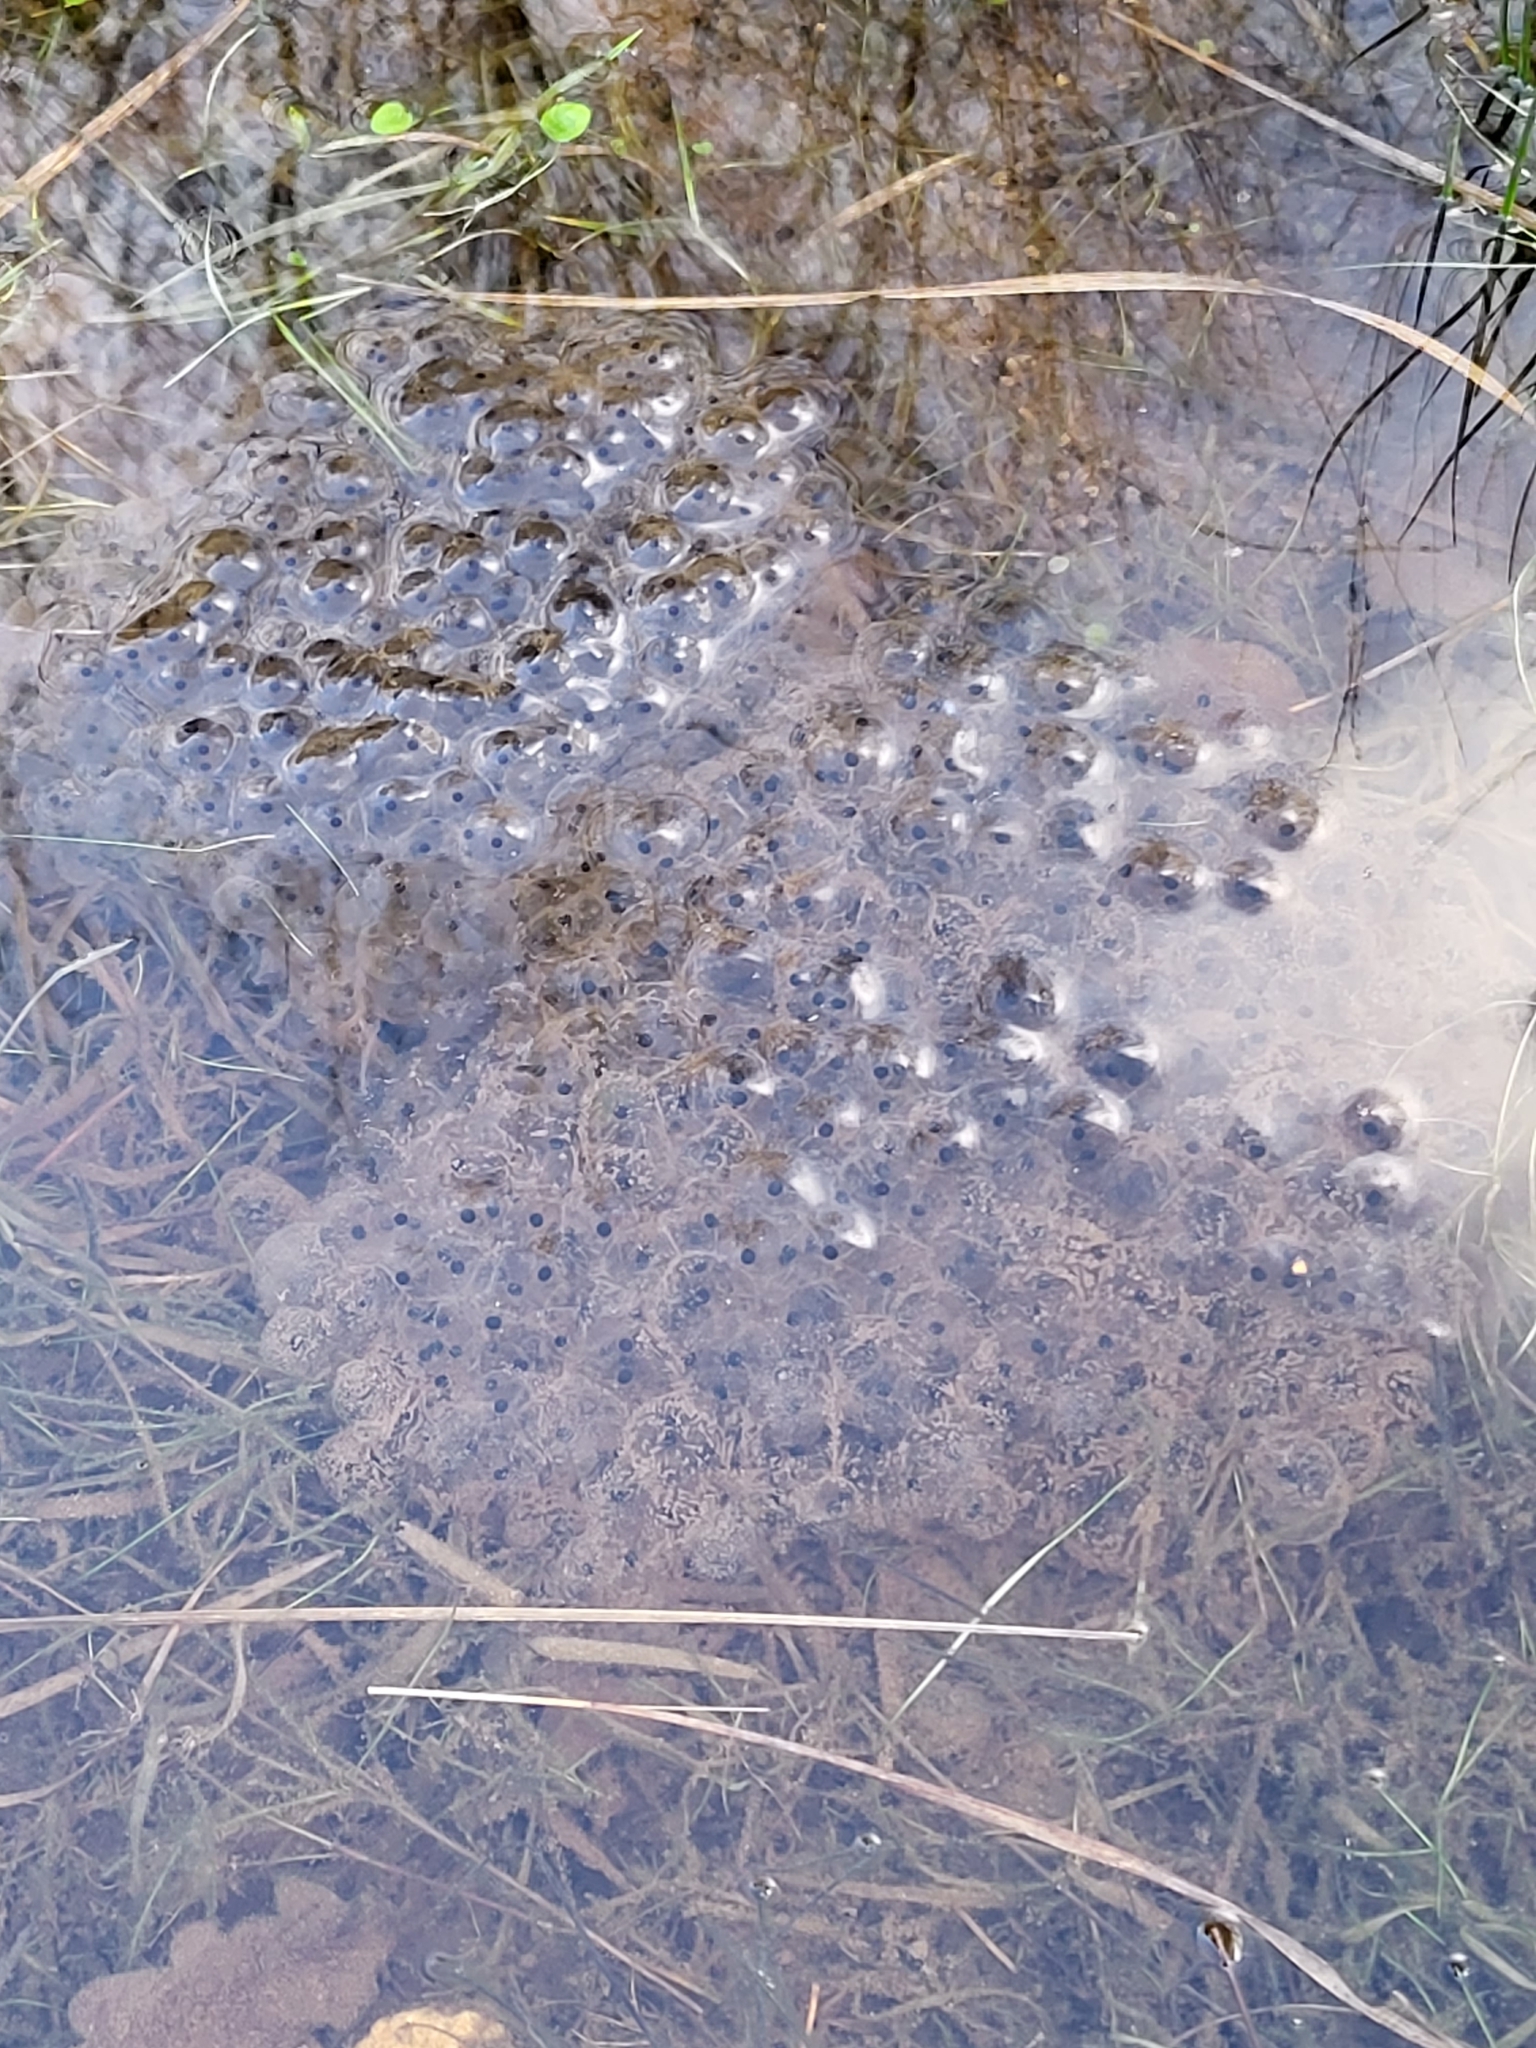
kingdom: Animalia
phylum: Chordata
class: Amphibia
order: Anura
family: Ranidae
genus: Rana
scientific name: Rana temporaria
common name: Common frog
